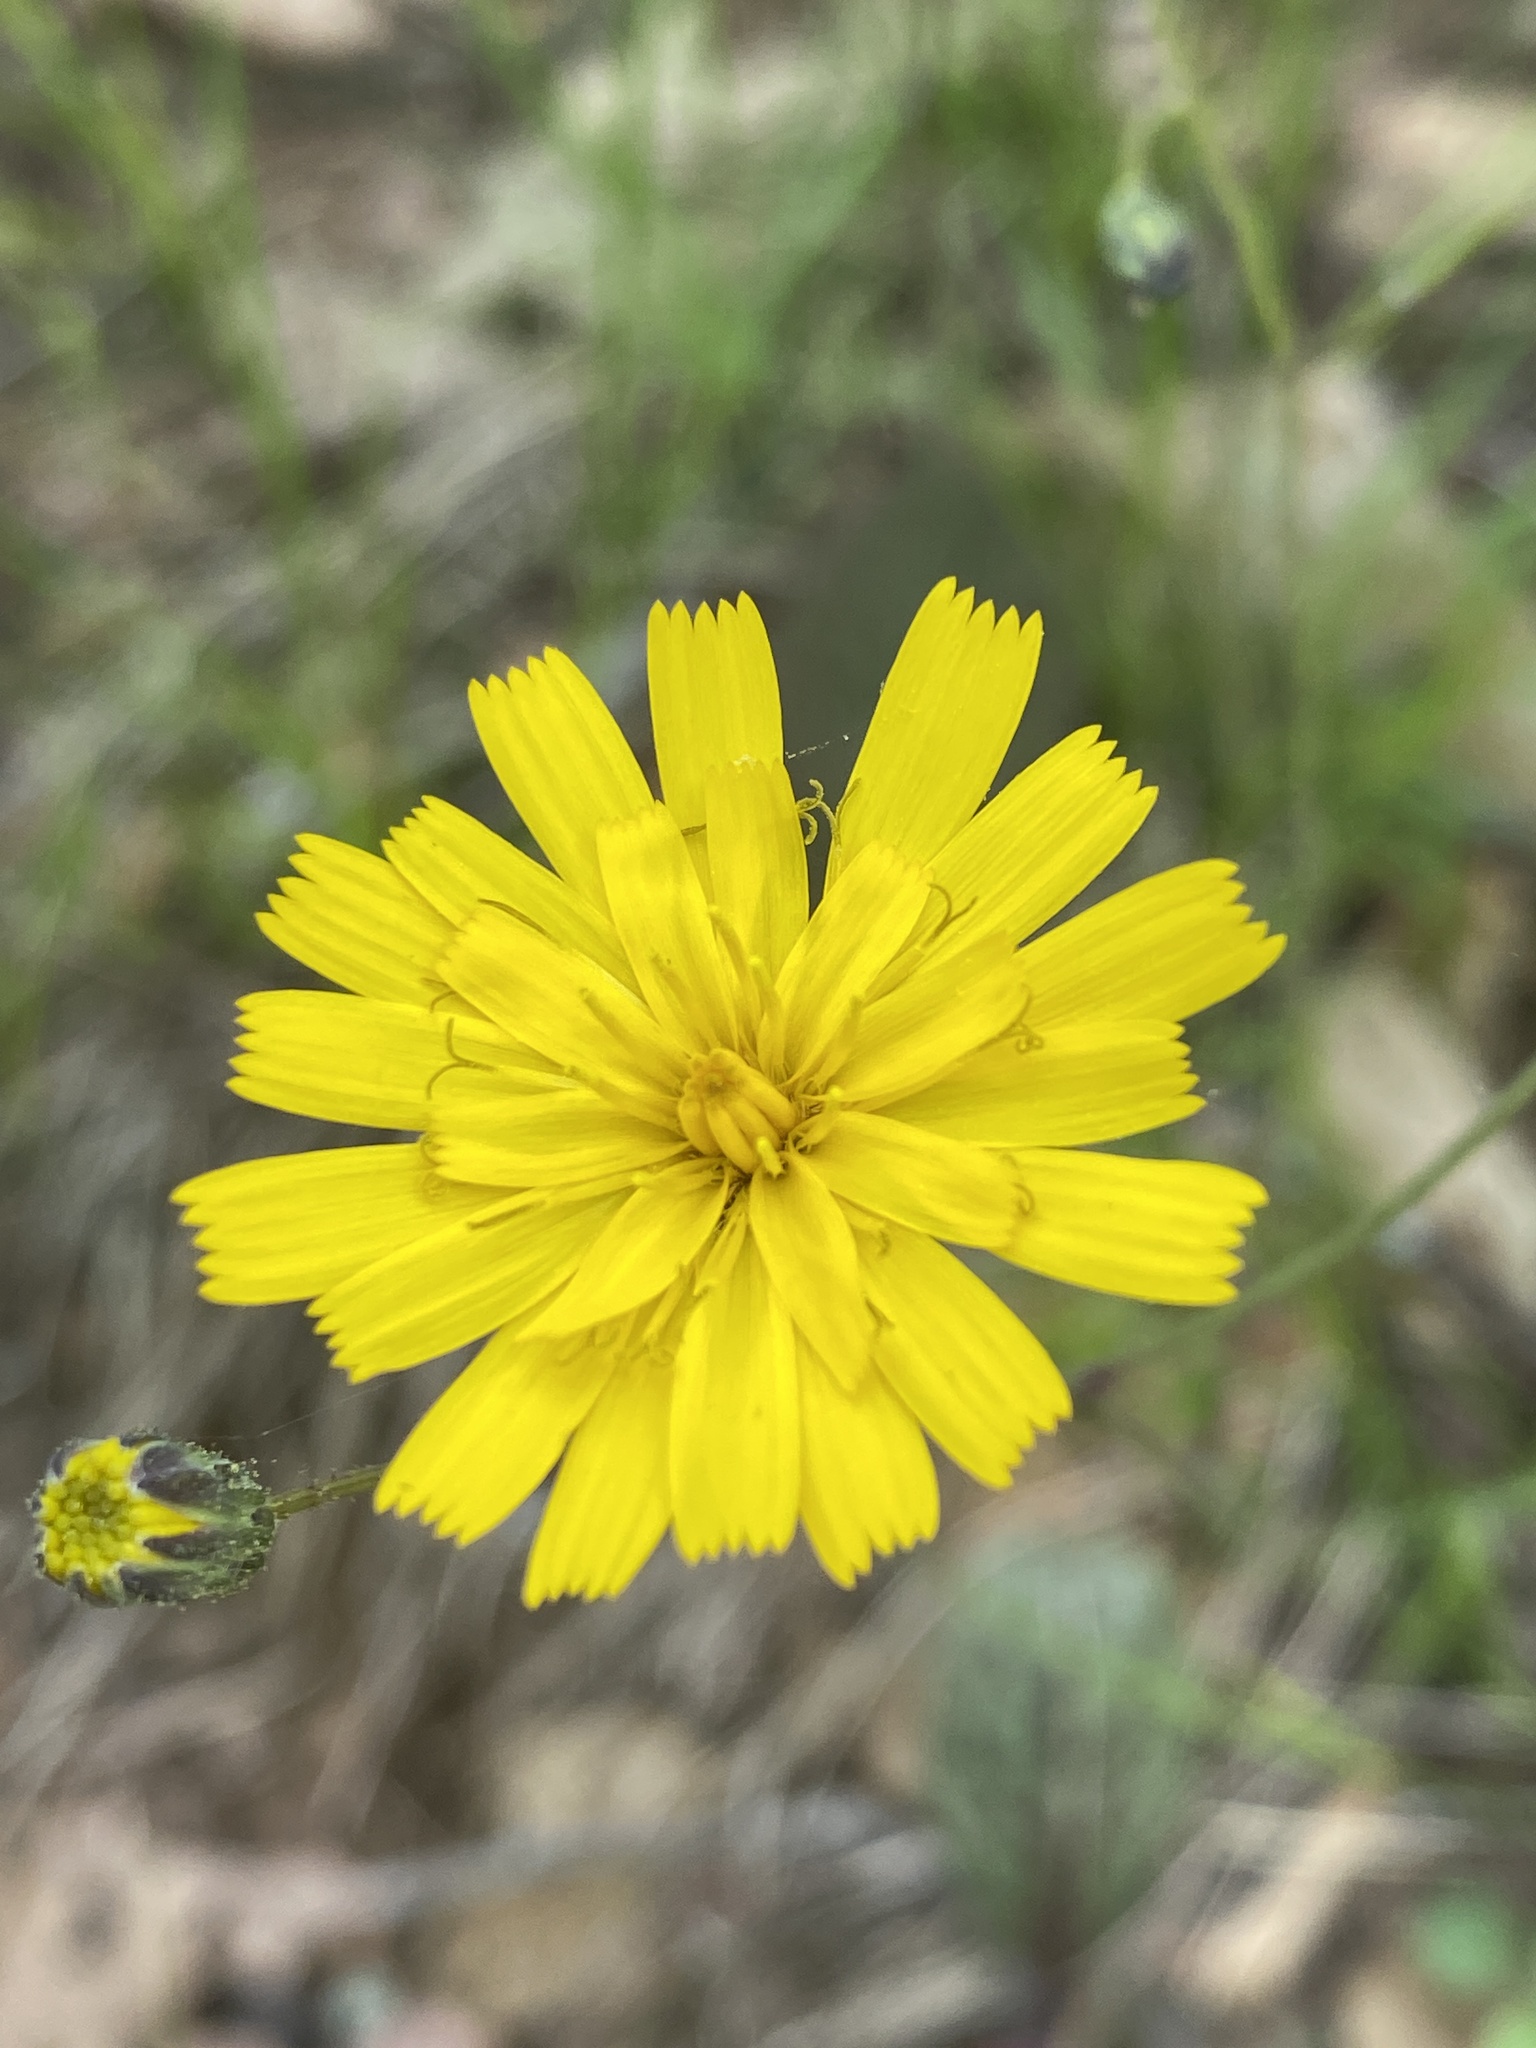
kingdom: Plantae
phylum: Tracheophyta
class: Magnoliopsida
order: Asterales
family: Asteraceae
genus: Hieracium
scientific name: Hieracium venosum
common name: Rattlesnake hawkweed
